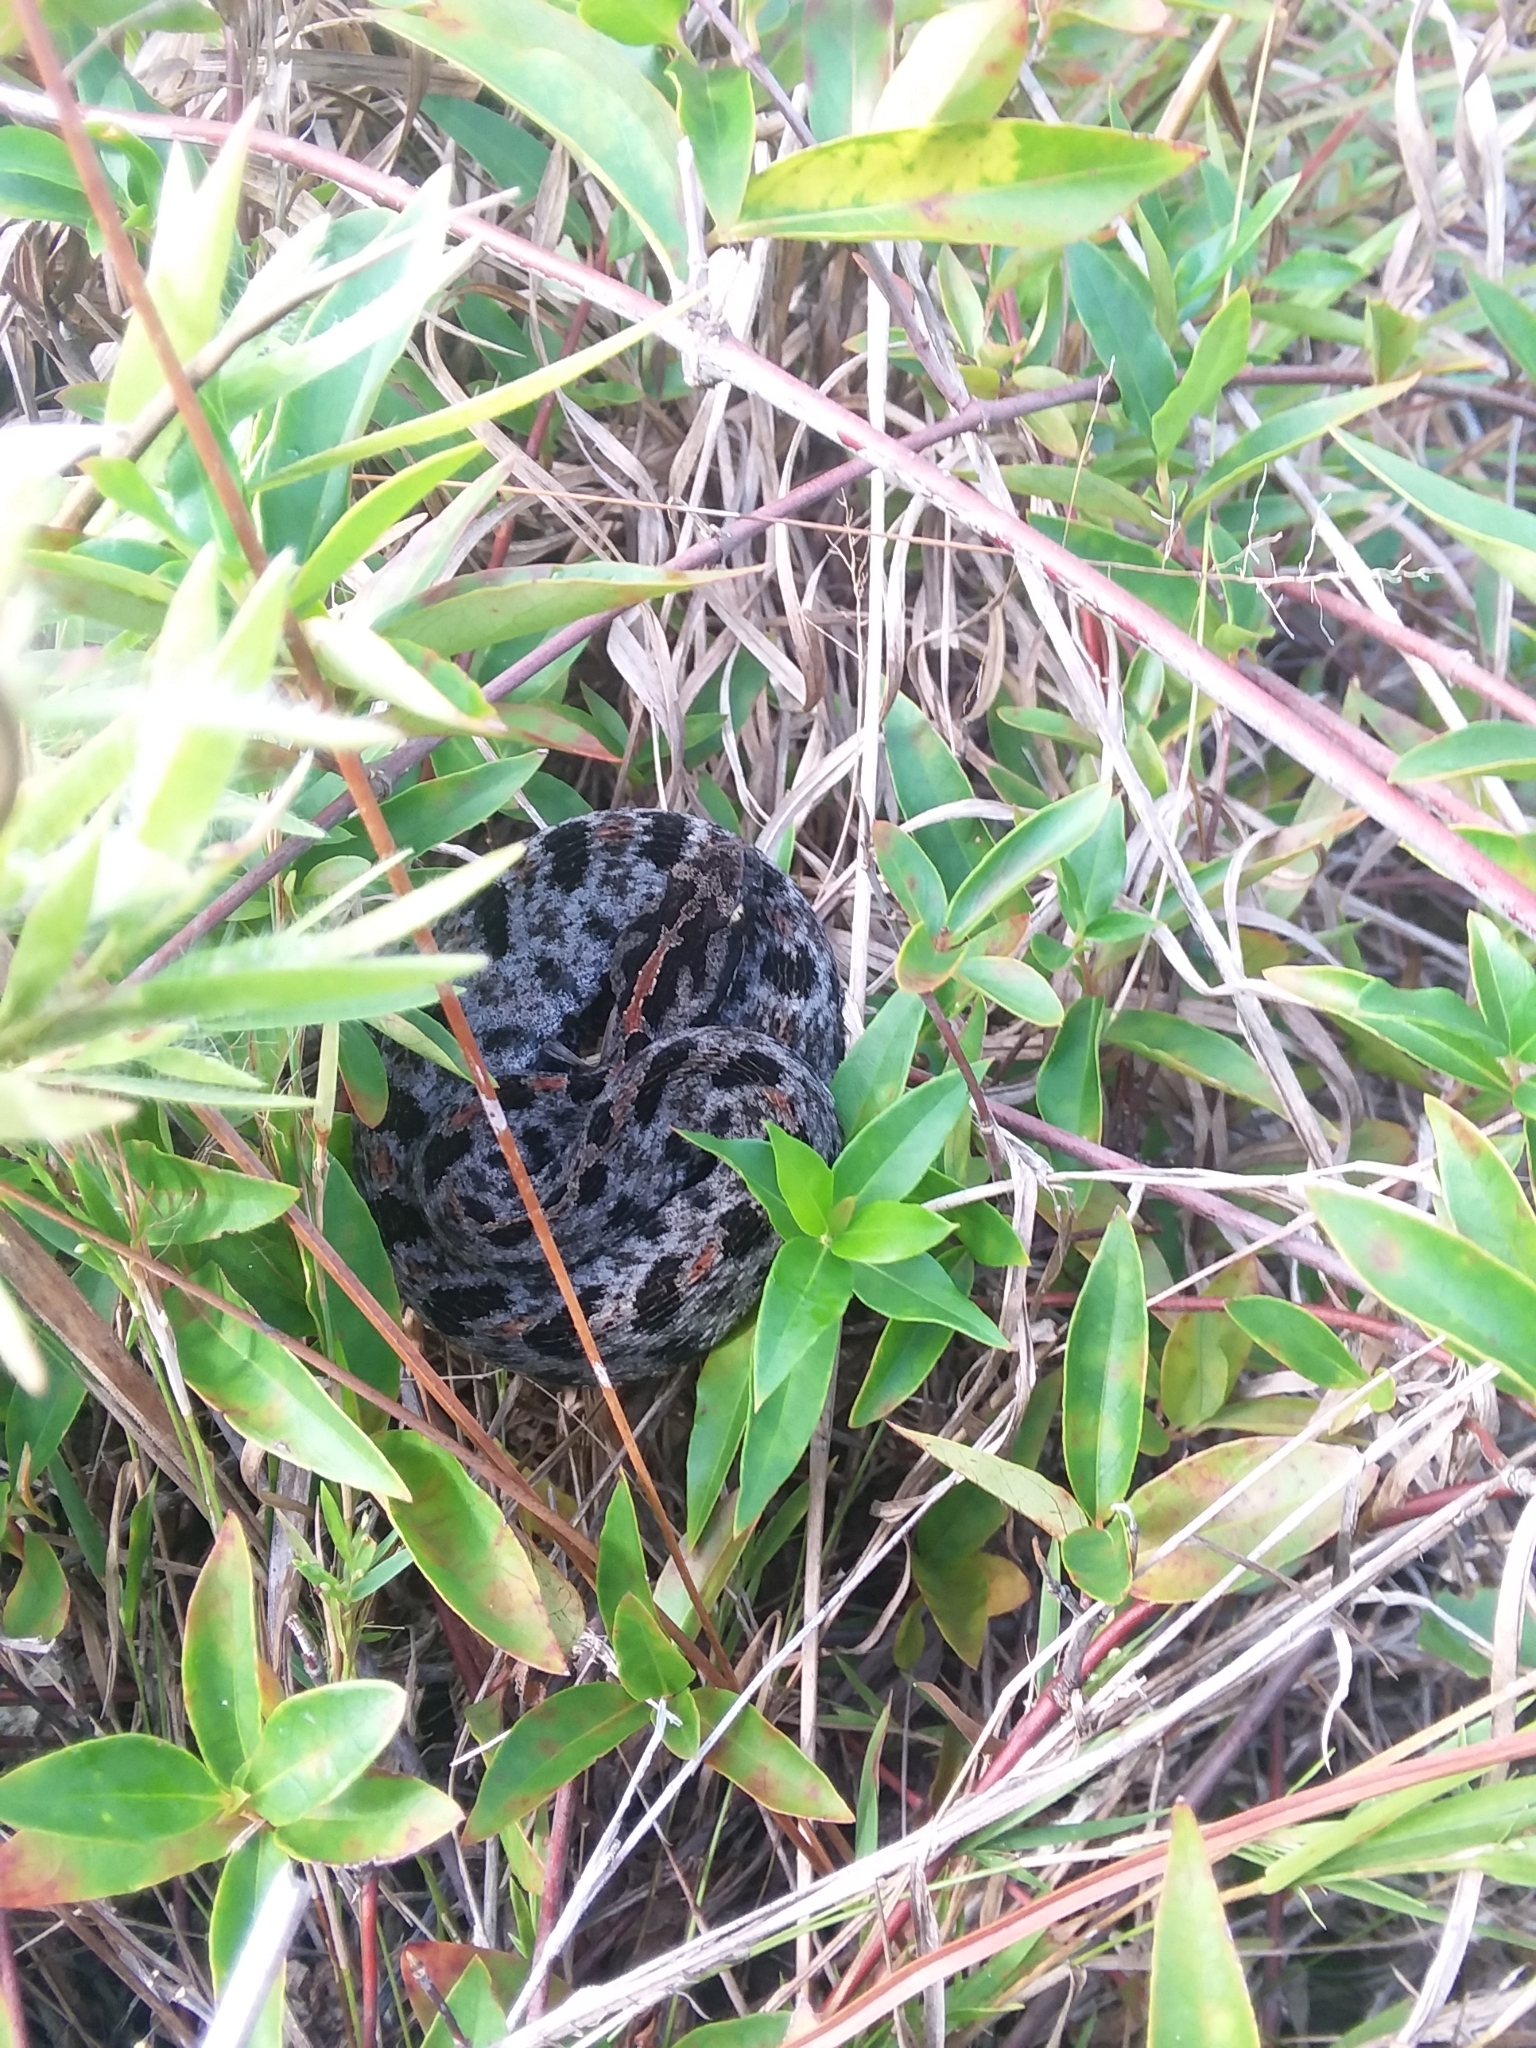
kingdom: Animalia
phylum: Chordata
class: Squamata
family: Viperidae
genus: Sistrurus
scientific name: Sistrurus miliarius
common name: Pygmy rattlesnake
